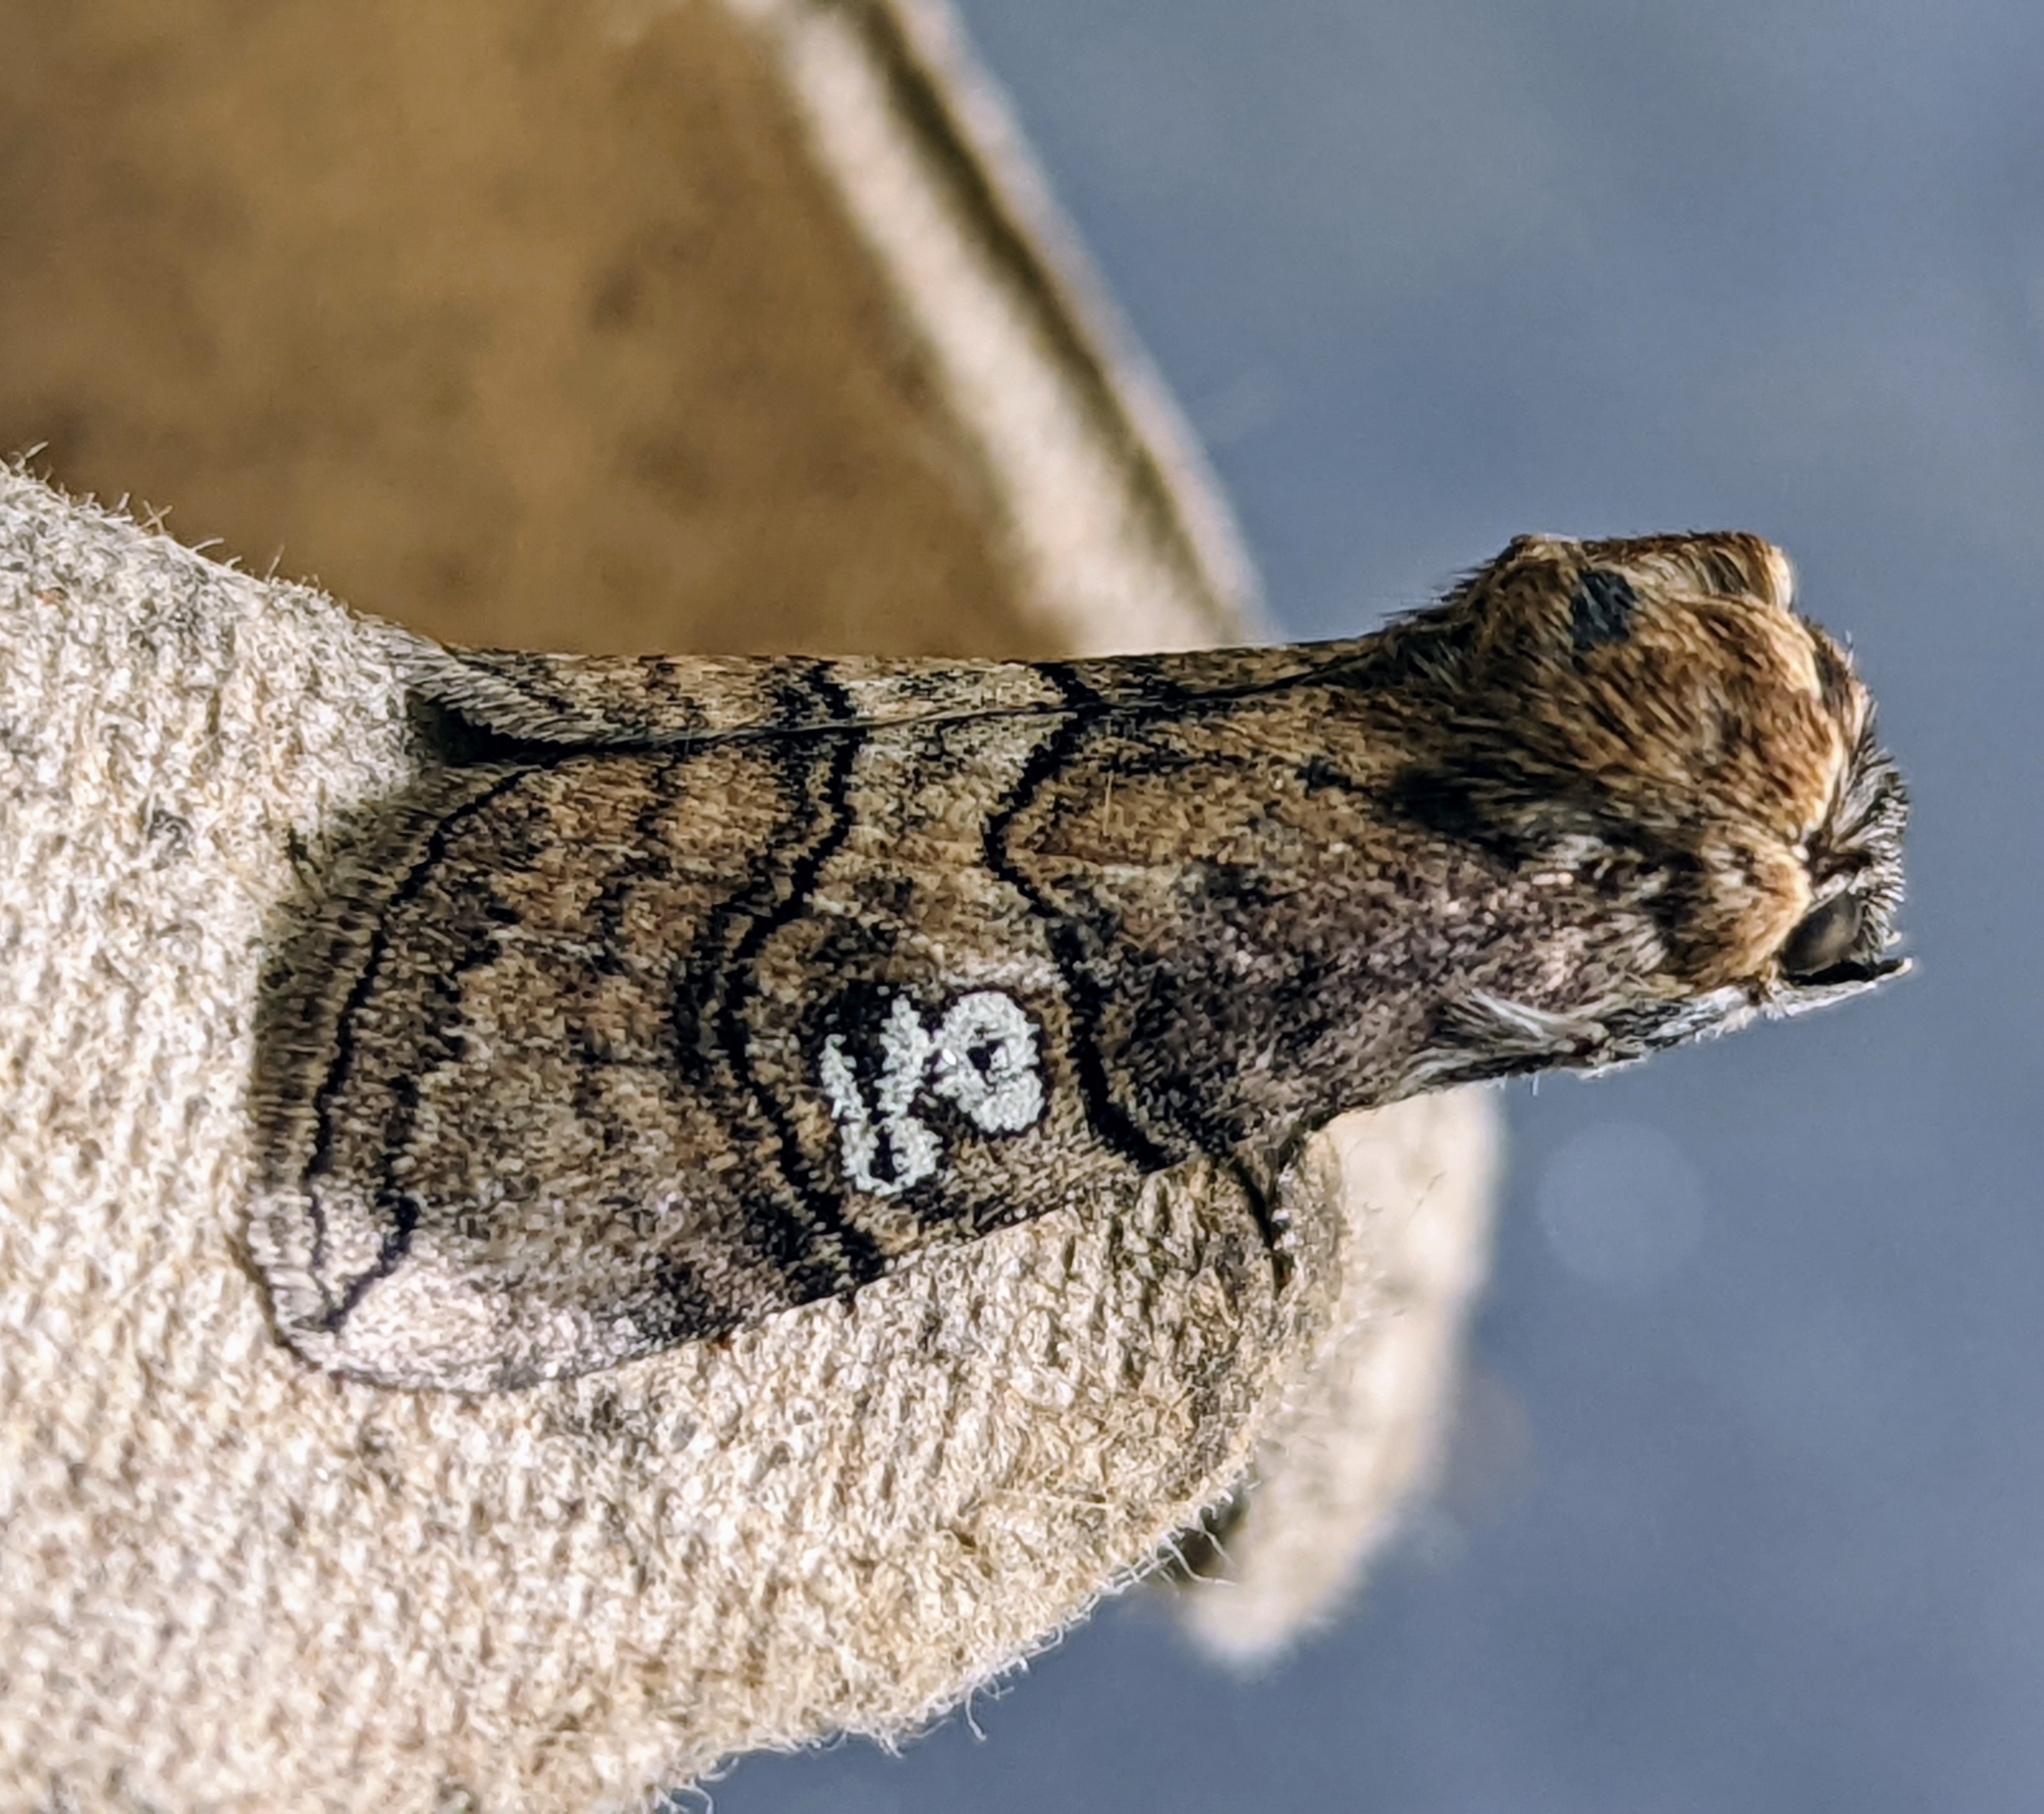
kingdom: Animalia
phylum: Arthropoda
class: Insecta
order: Lepidoptera
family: Drepanidae
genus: Tethea
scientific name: Tethea ocularis
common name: Figure of eighty
